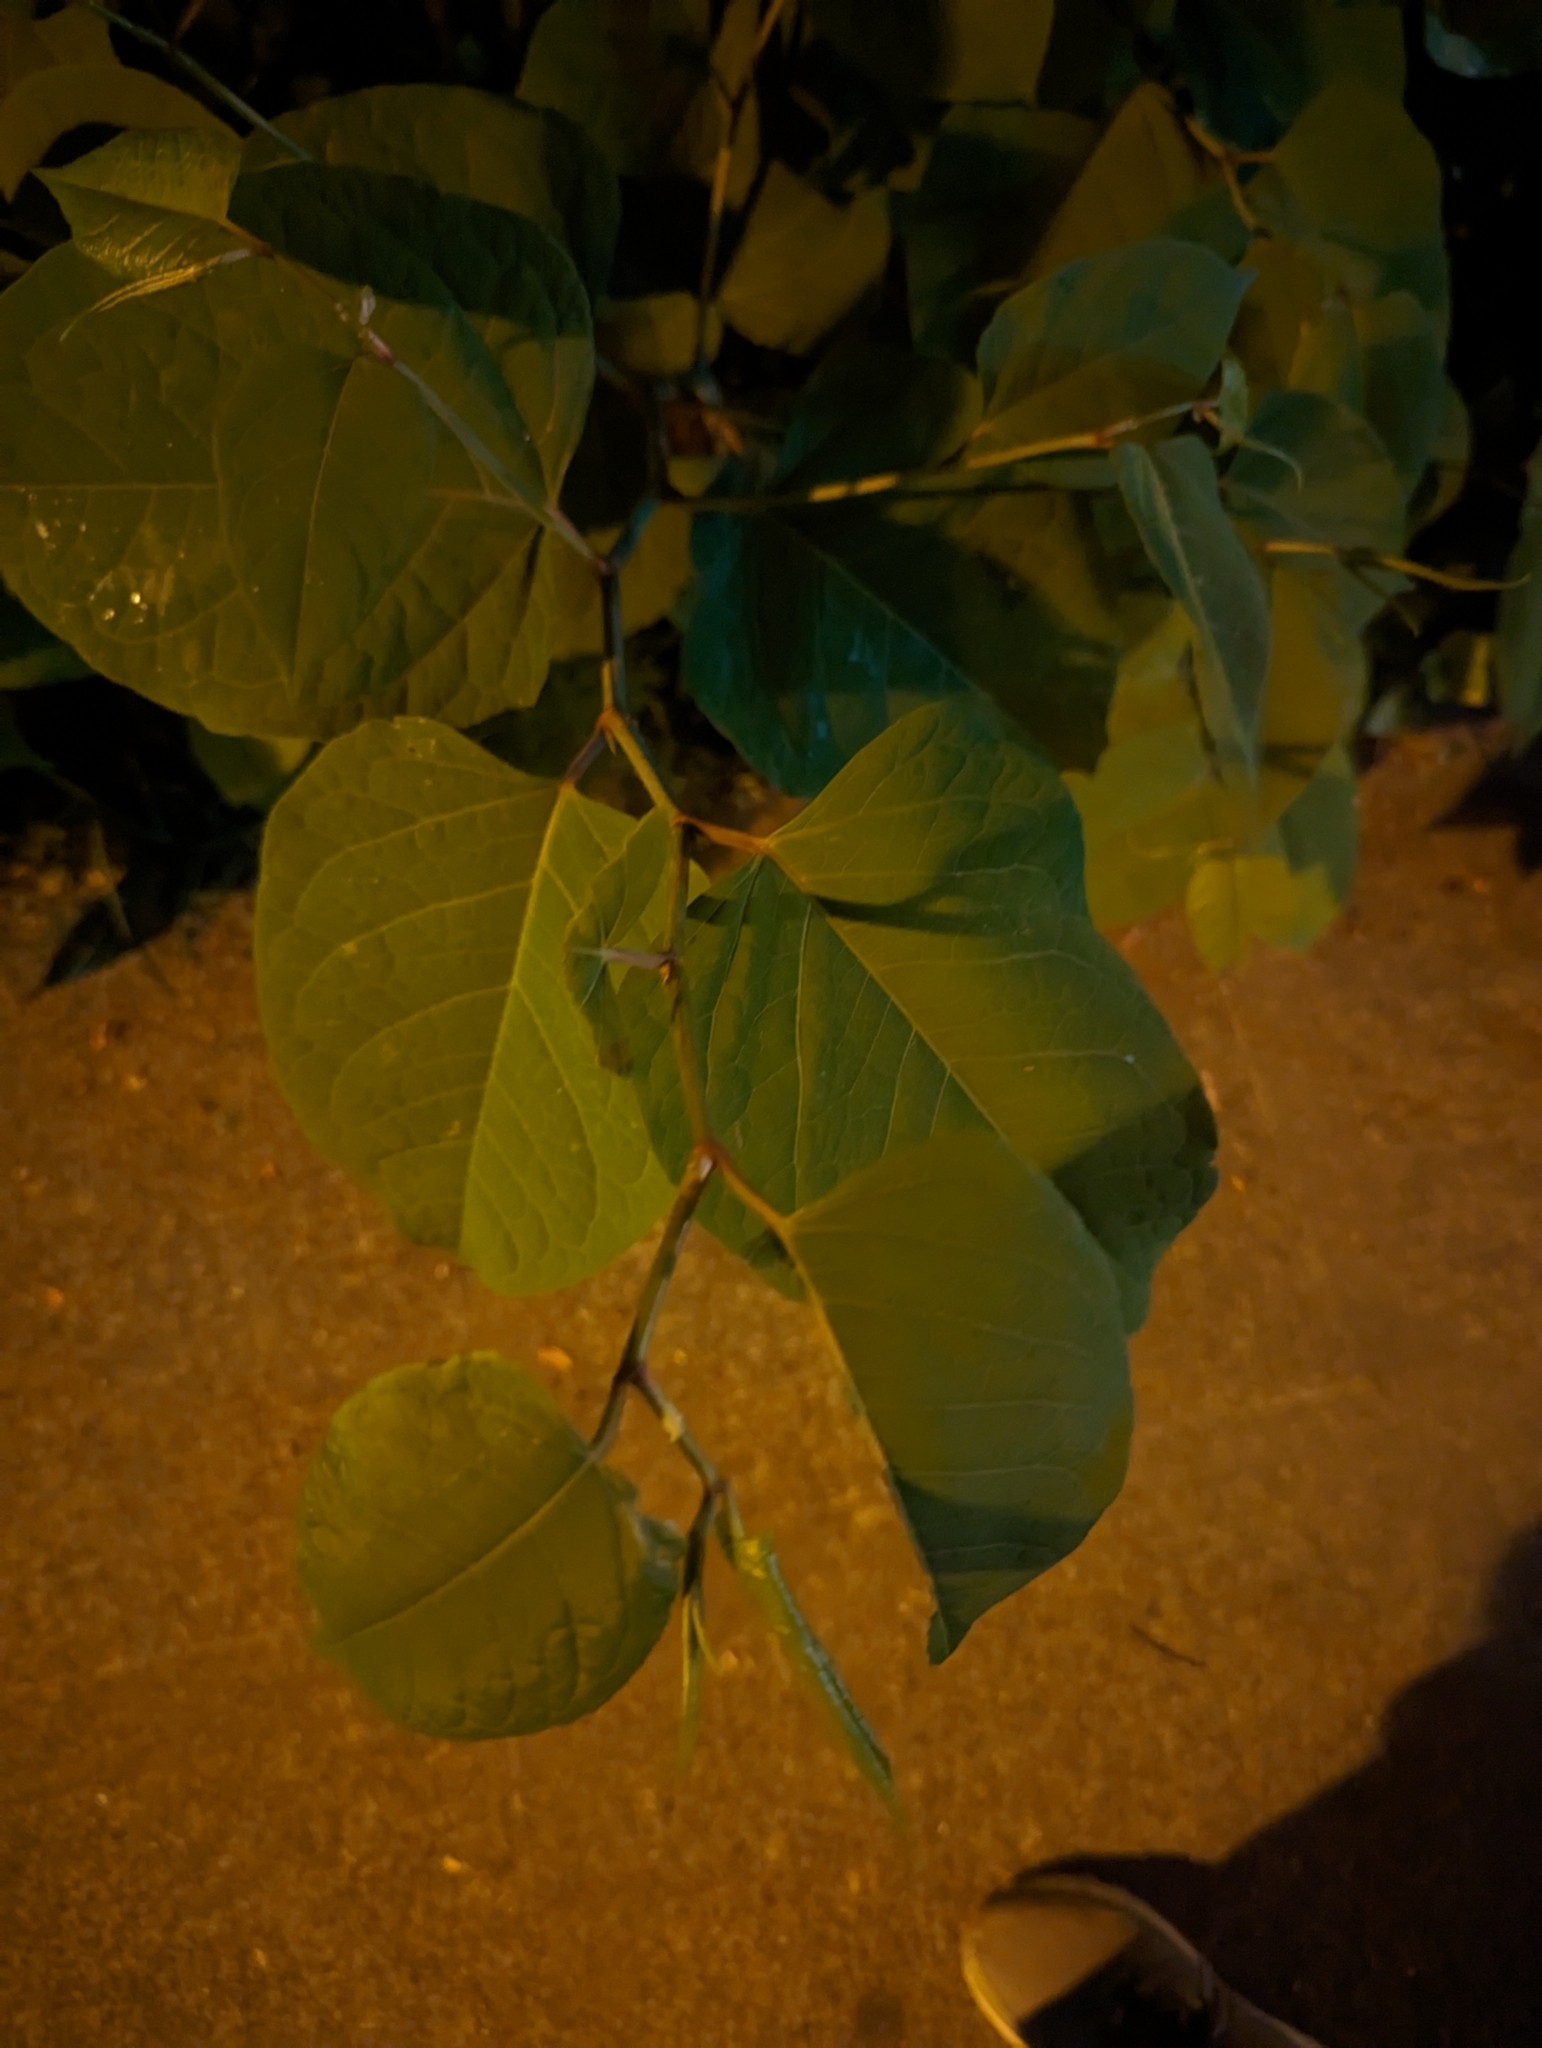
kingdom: Plantae
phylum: Tracheophyta
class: Magnoliopsida
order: Caryophyllales
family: Polygonaceae
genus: Reynoutria
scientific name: Reynoutria japonica
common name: Japanese knotweed
